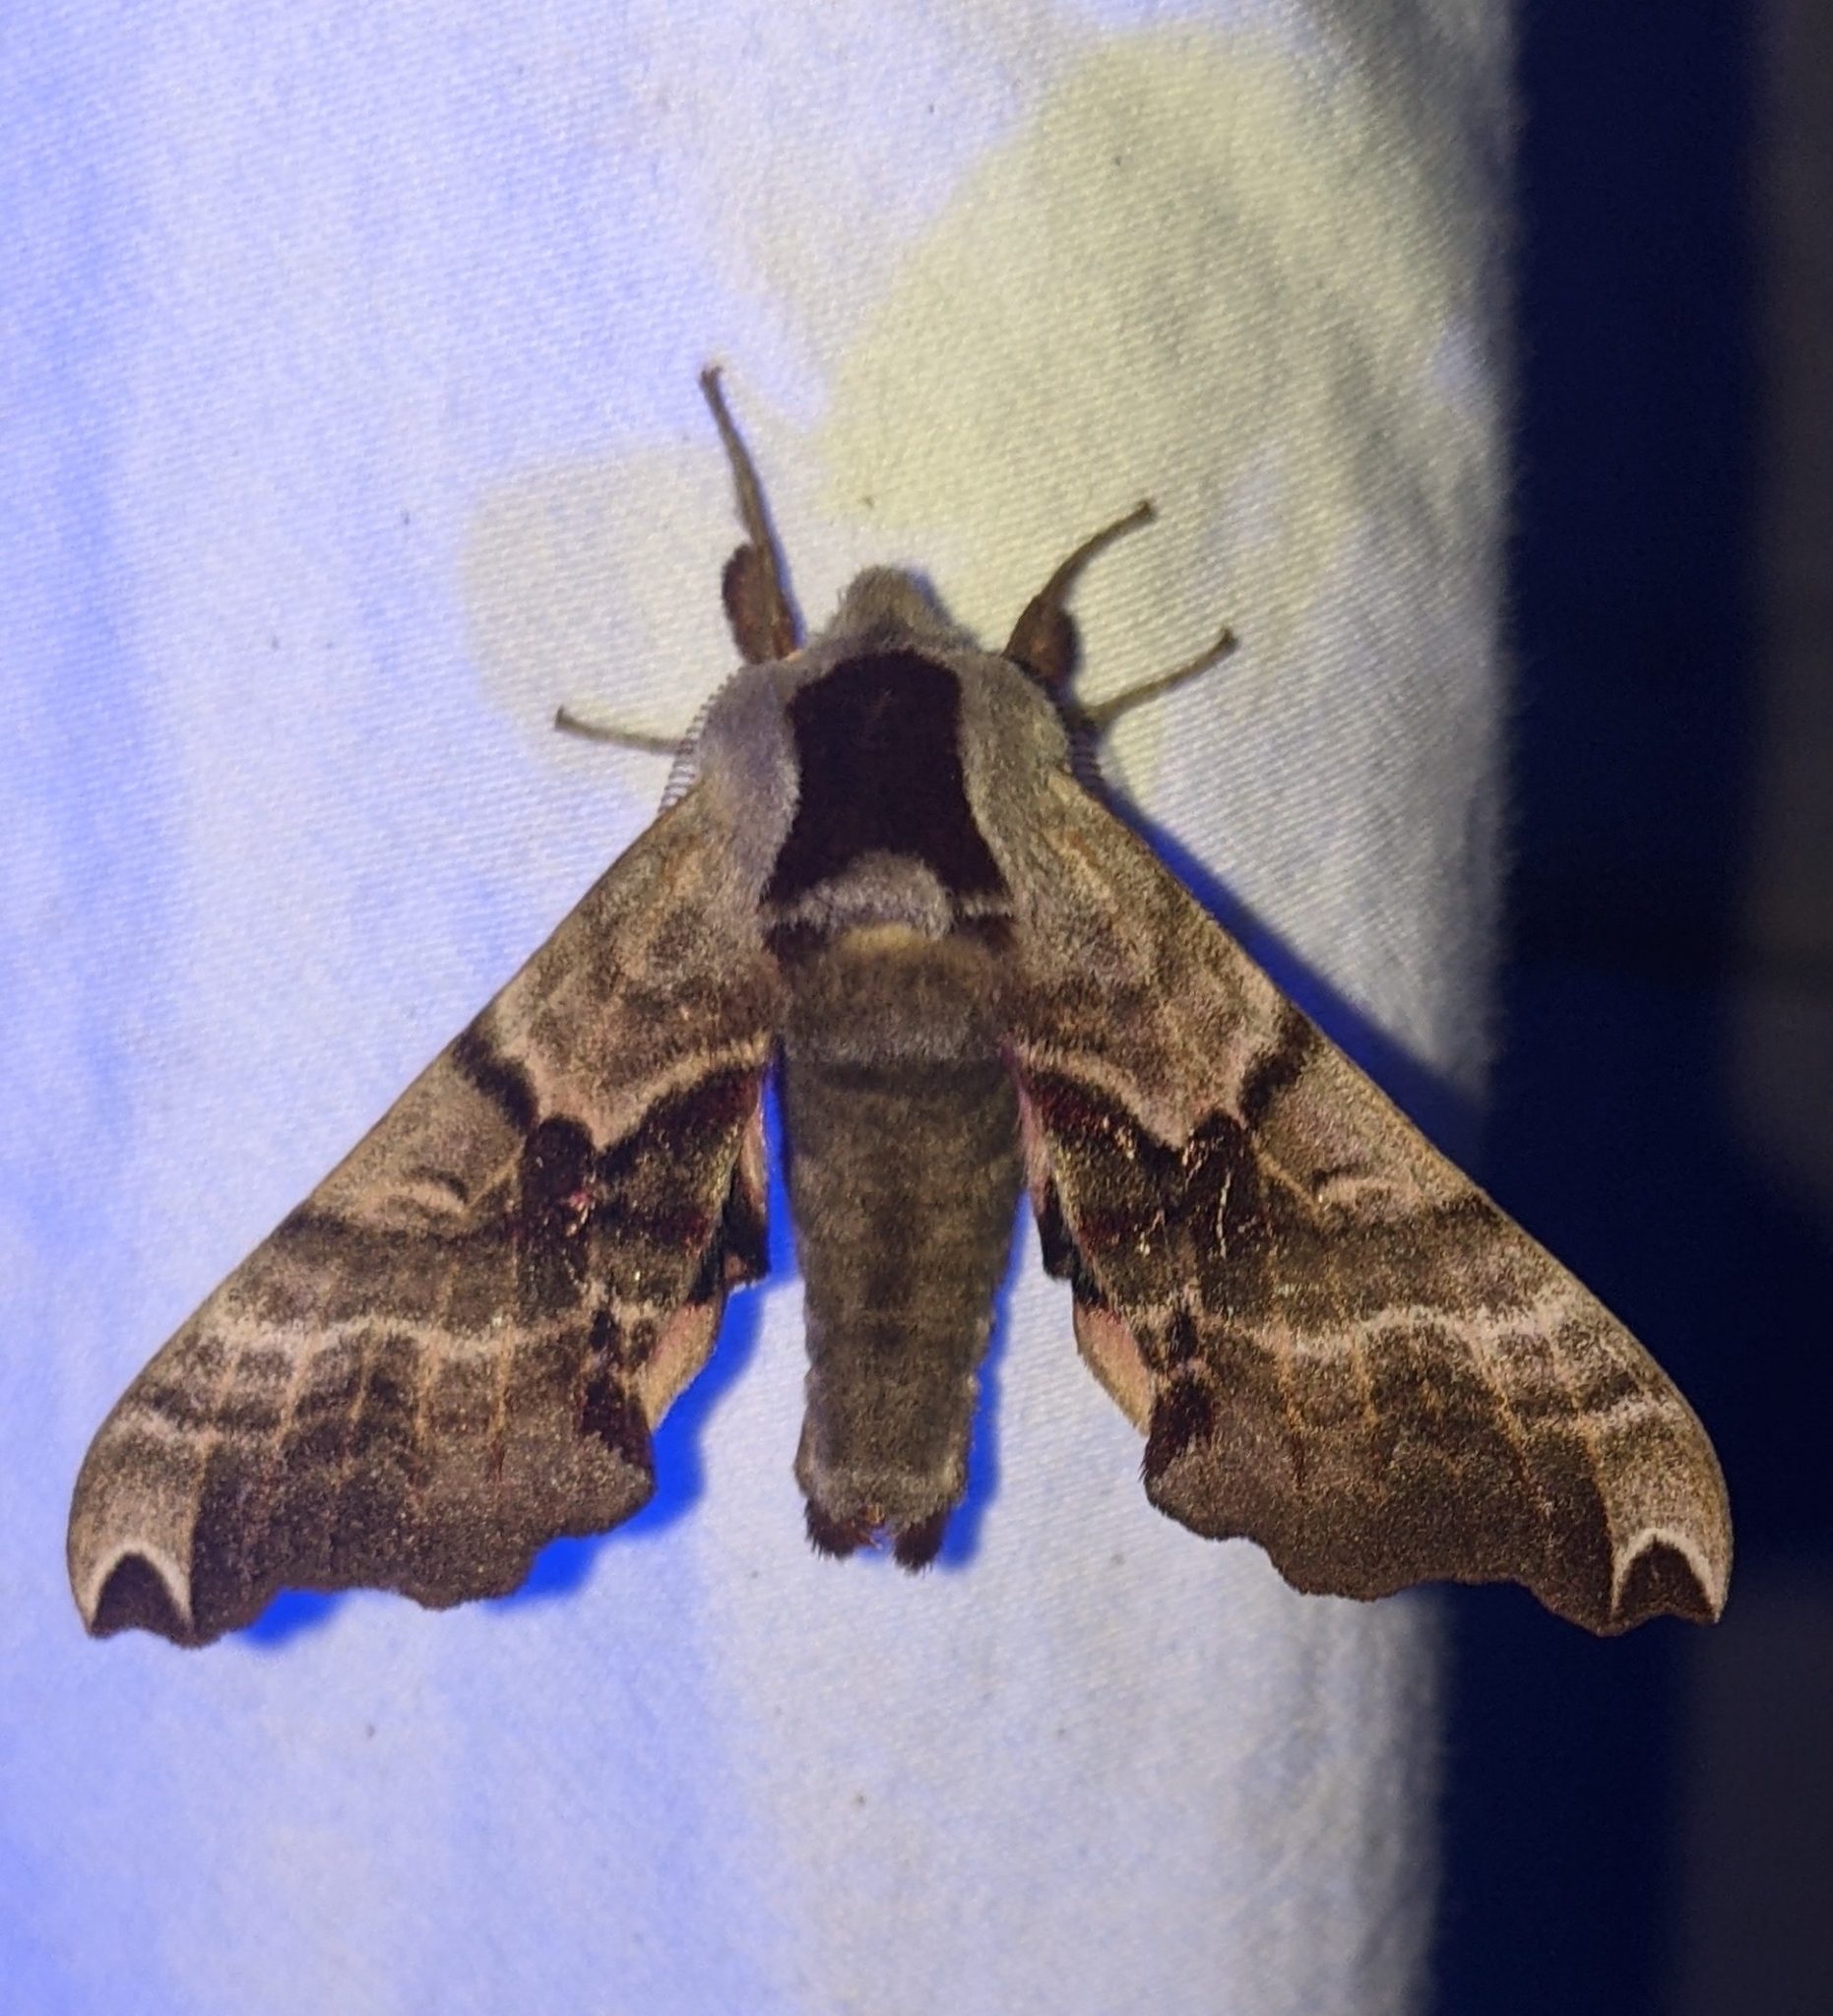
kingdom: Animalia
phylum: Arthropoda
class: Insecta
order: Lepidoptera
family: Sphingidae
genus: Smerinthus
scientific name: Smerinthus jamaicensis
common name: Twin spotted sphinx
